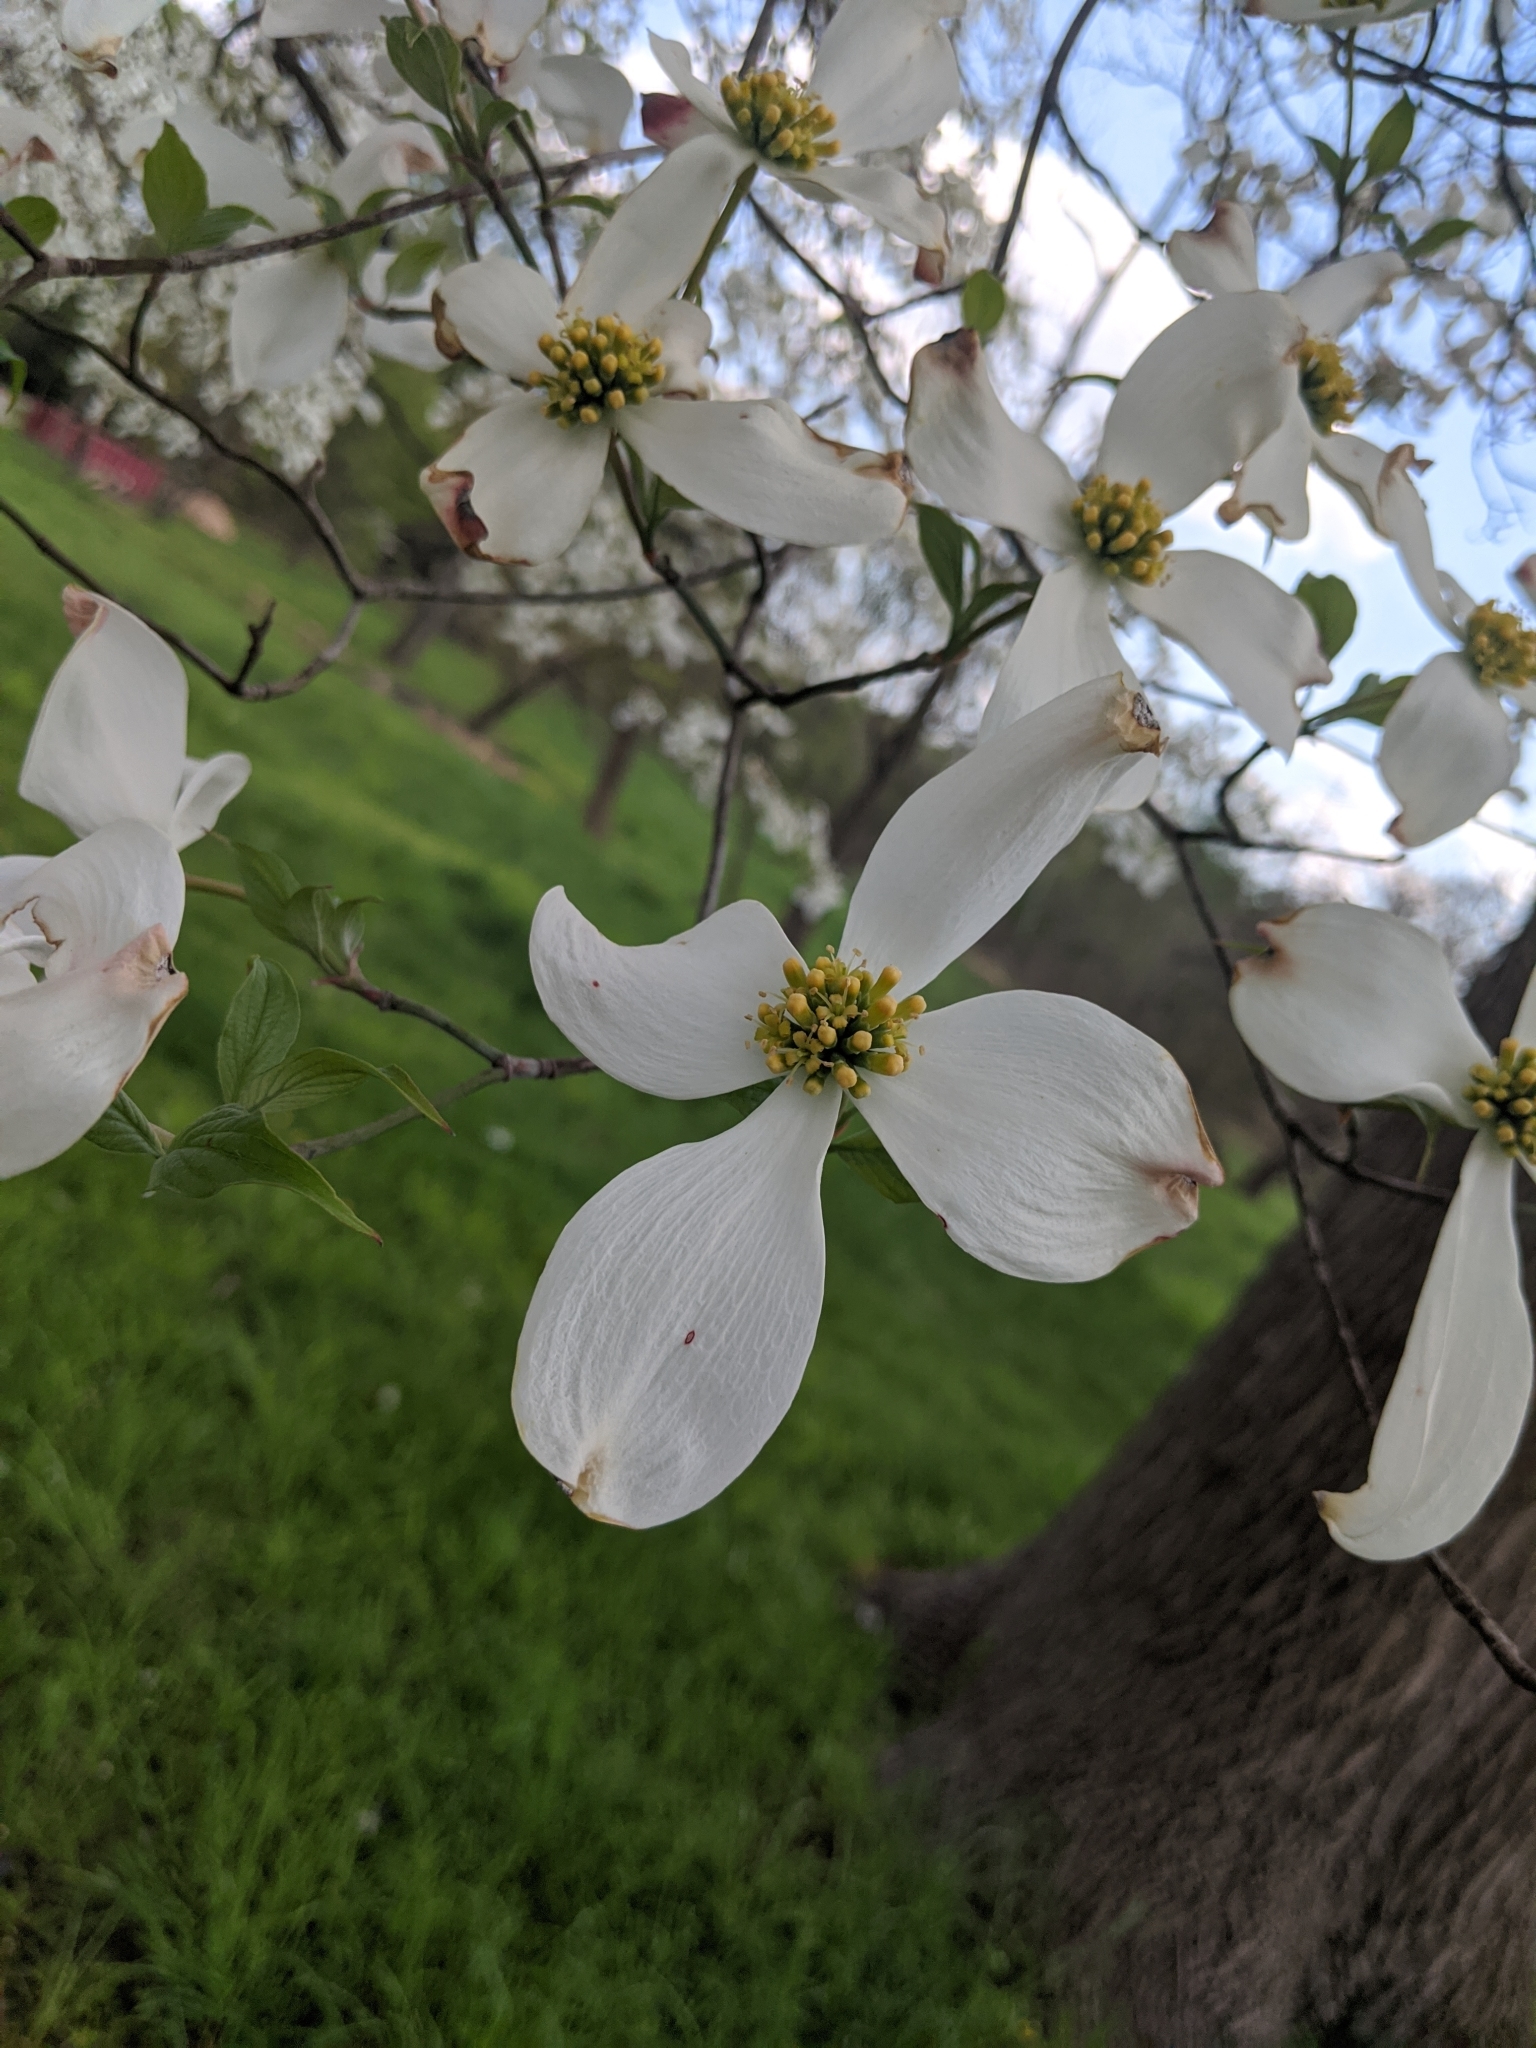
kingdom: Plantae
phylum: Tracheophyta
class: Magnoliopsida
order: Cornales
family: Cornaceae
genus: Cornus
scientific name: Cornus florida
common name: Flowering dogwood
